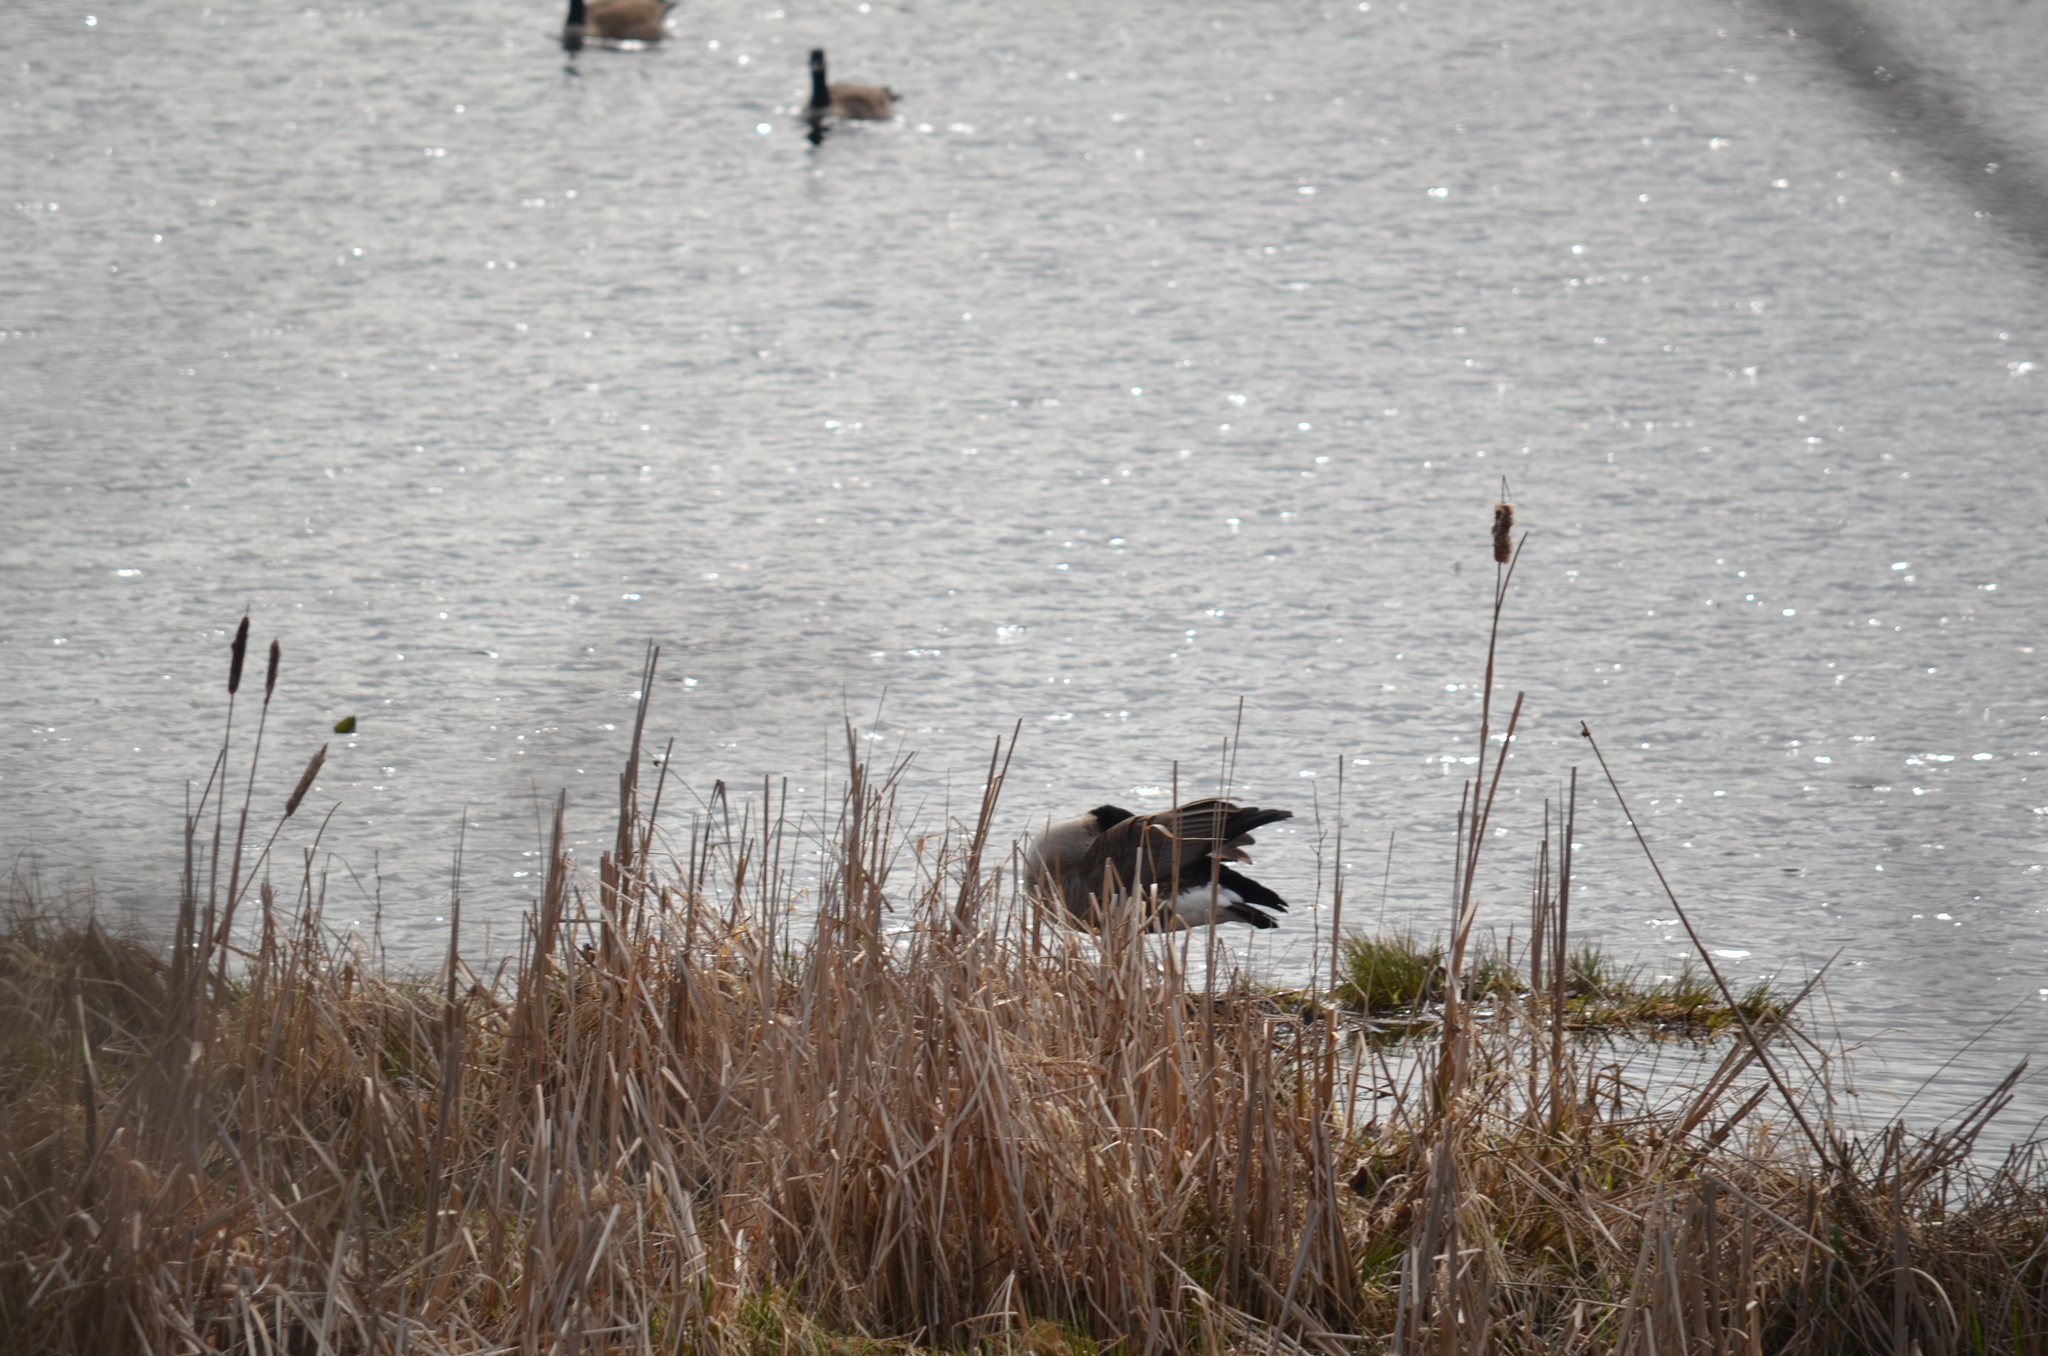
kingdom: Animalia
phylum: Chordata
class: Aves
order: Anseriformes
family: Anatidae
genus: Branta
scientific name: Branta canadensis
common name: Canada goose
